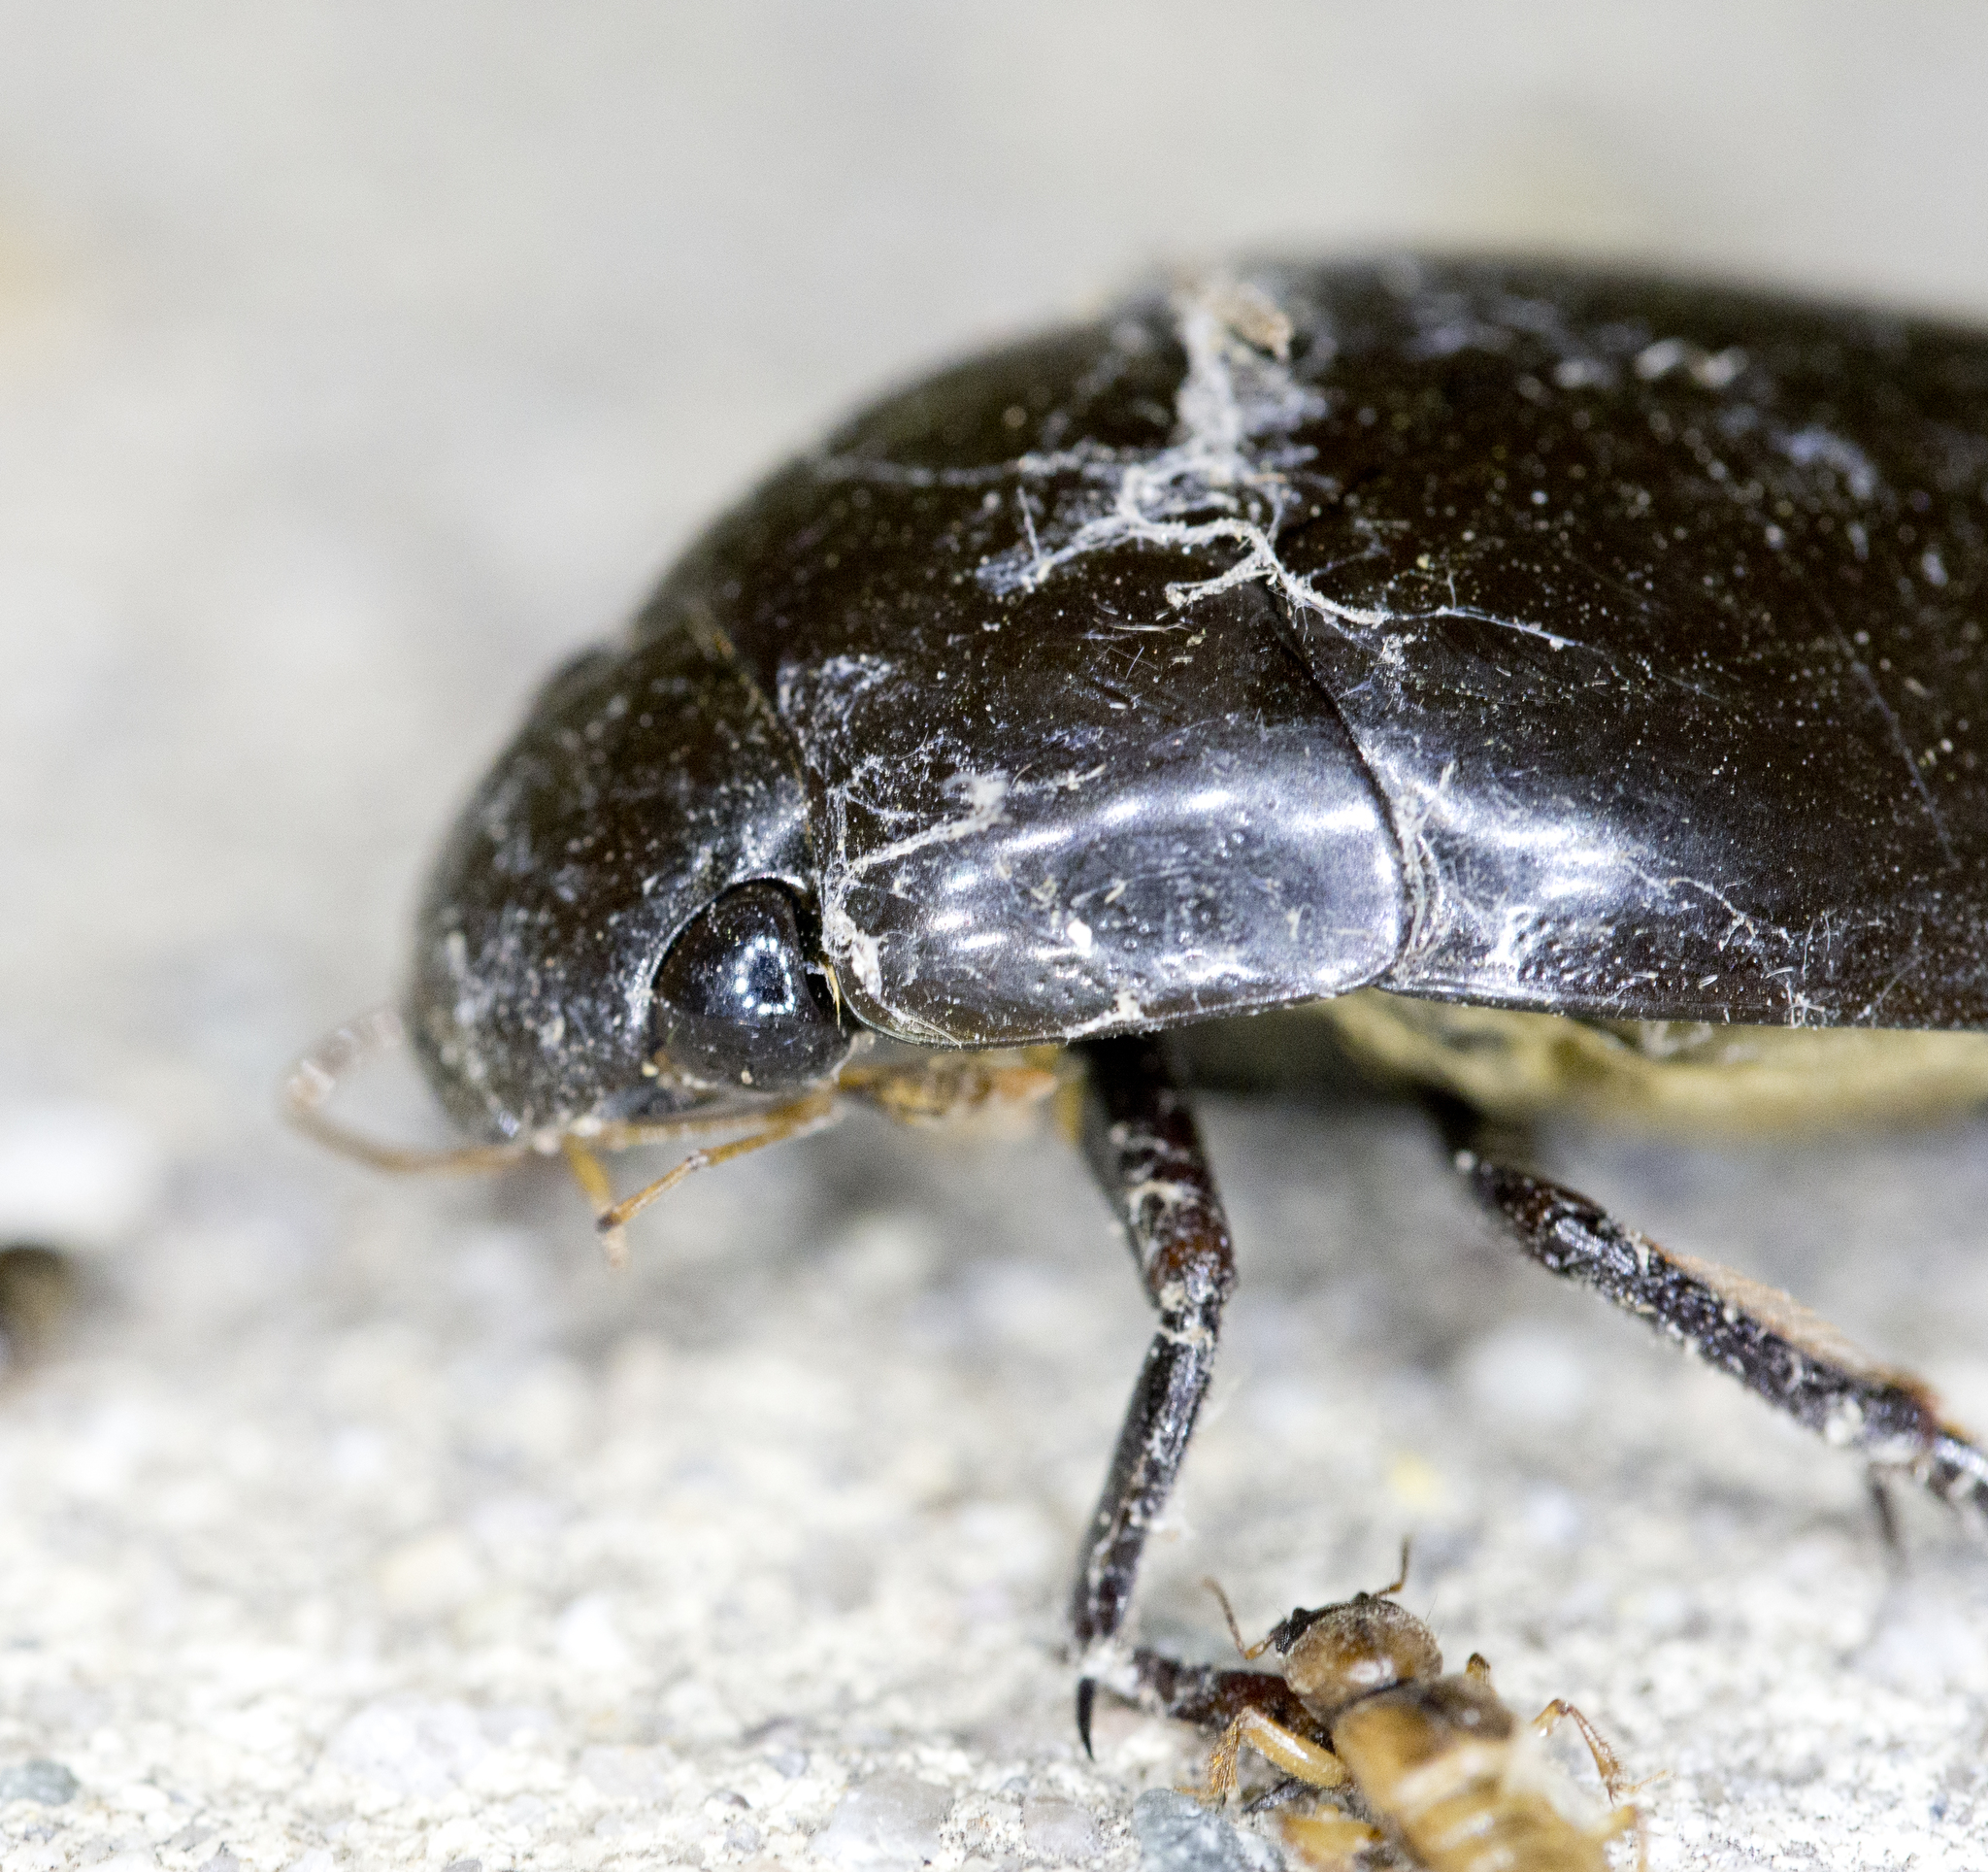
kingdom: Animalia
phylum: Arthropoda
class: Insecta
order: Coleoptera
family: Hydrophilidae
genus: Hydrophilus
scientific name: Hydrophilus triangularis
